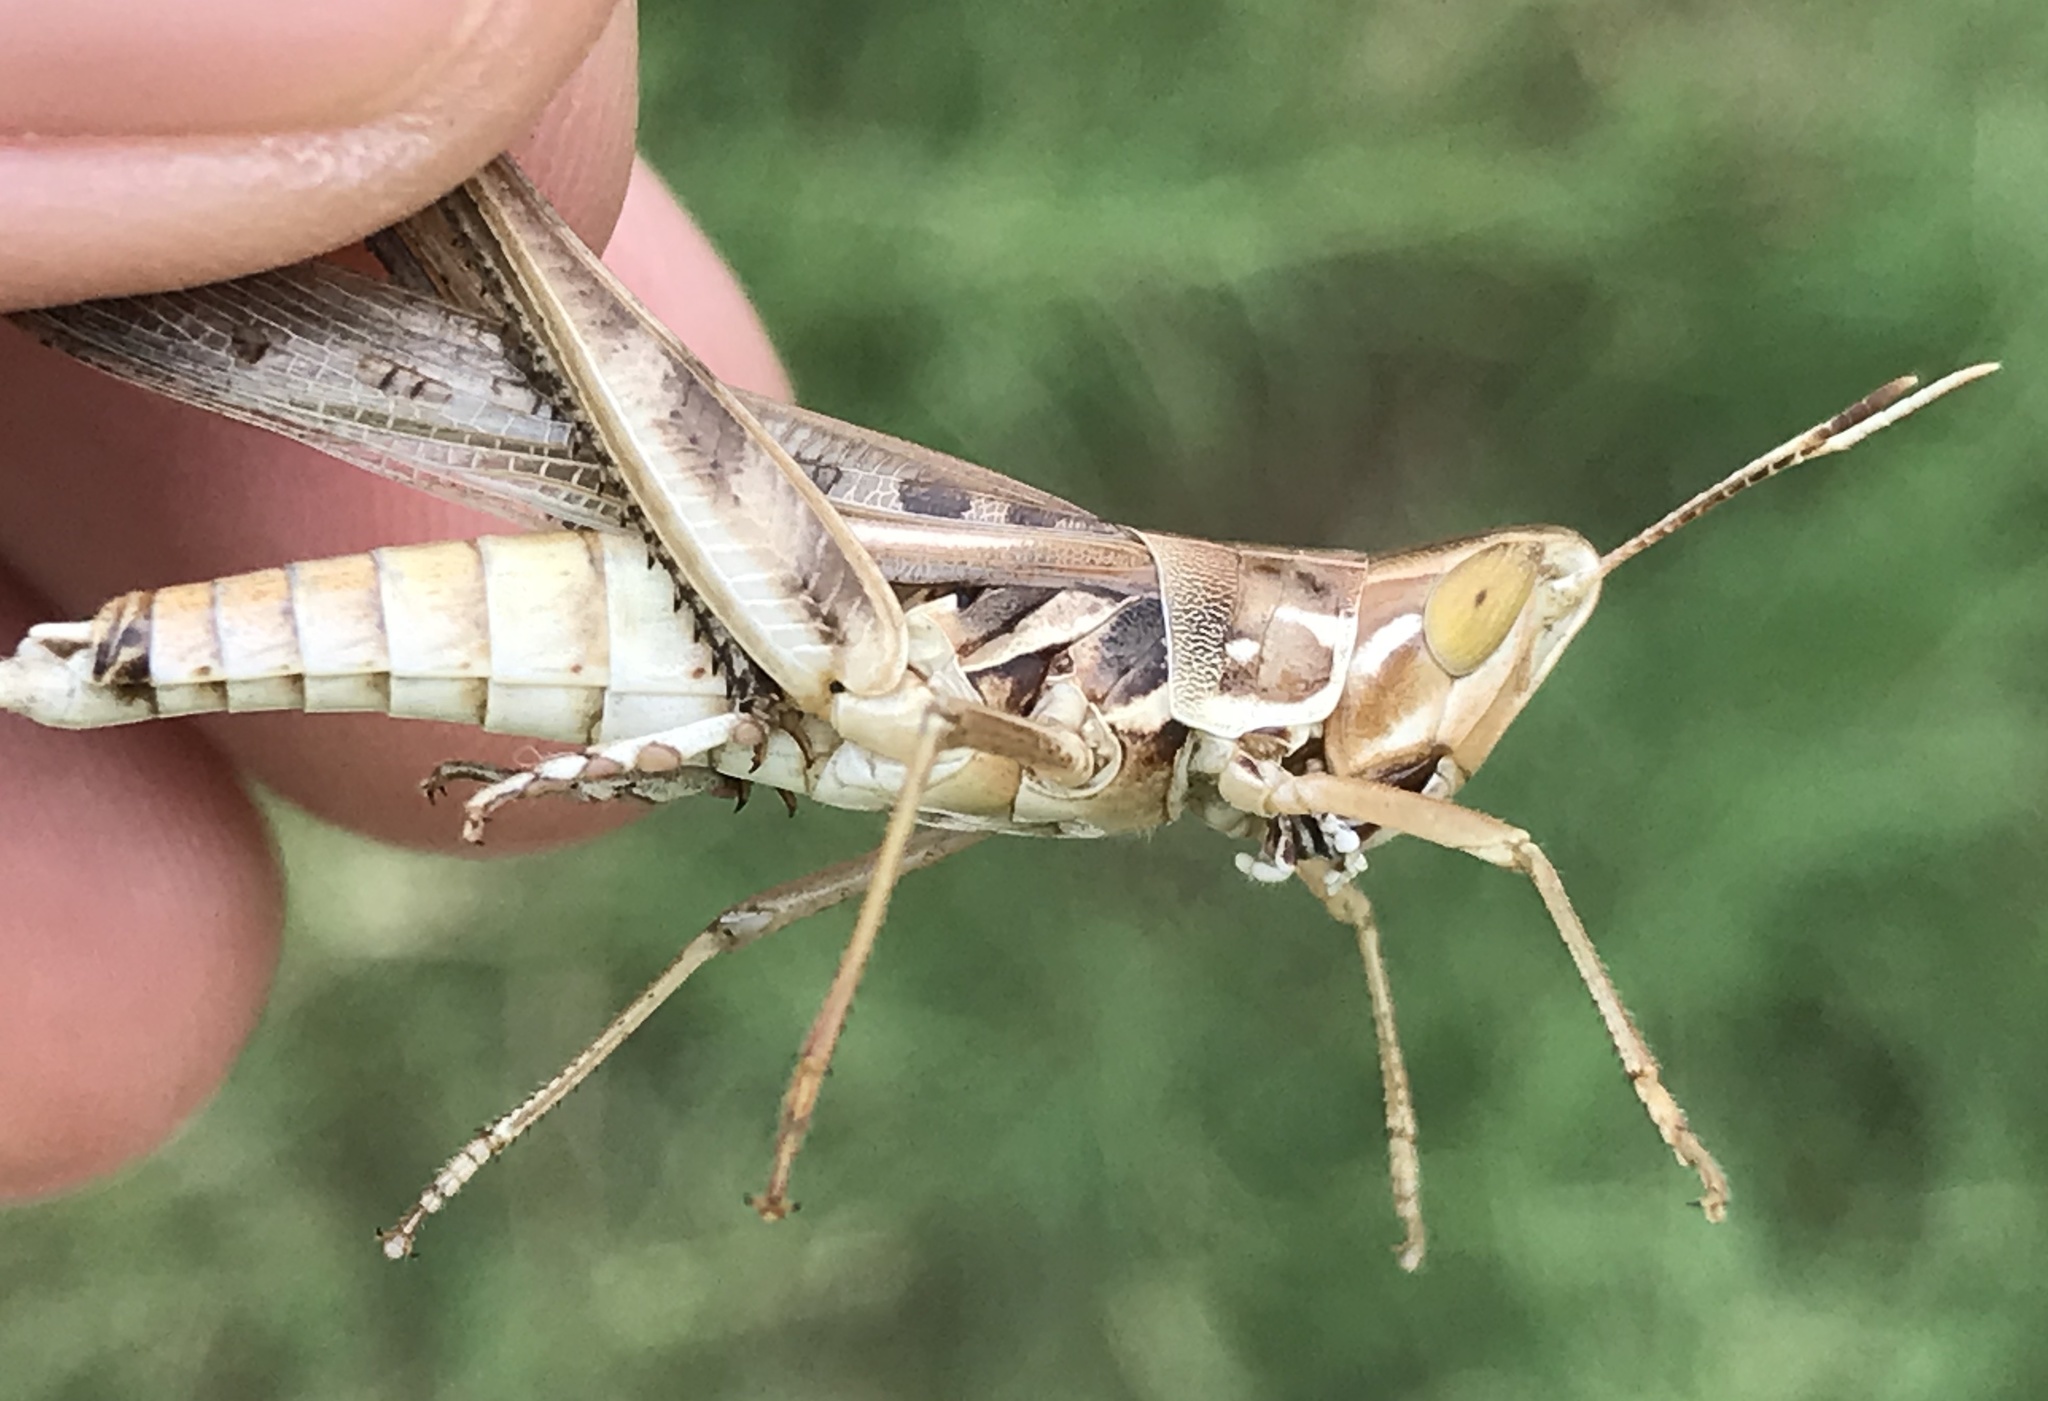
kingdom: Animalia
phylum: Arthropoda
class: Insecta
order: Orthoptera
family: Acrididae
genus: Syrbula
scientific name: Syrbula admirabilis
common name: Handsome grasshopper
